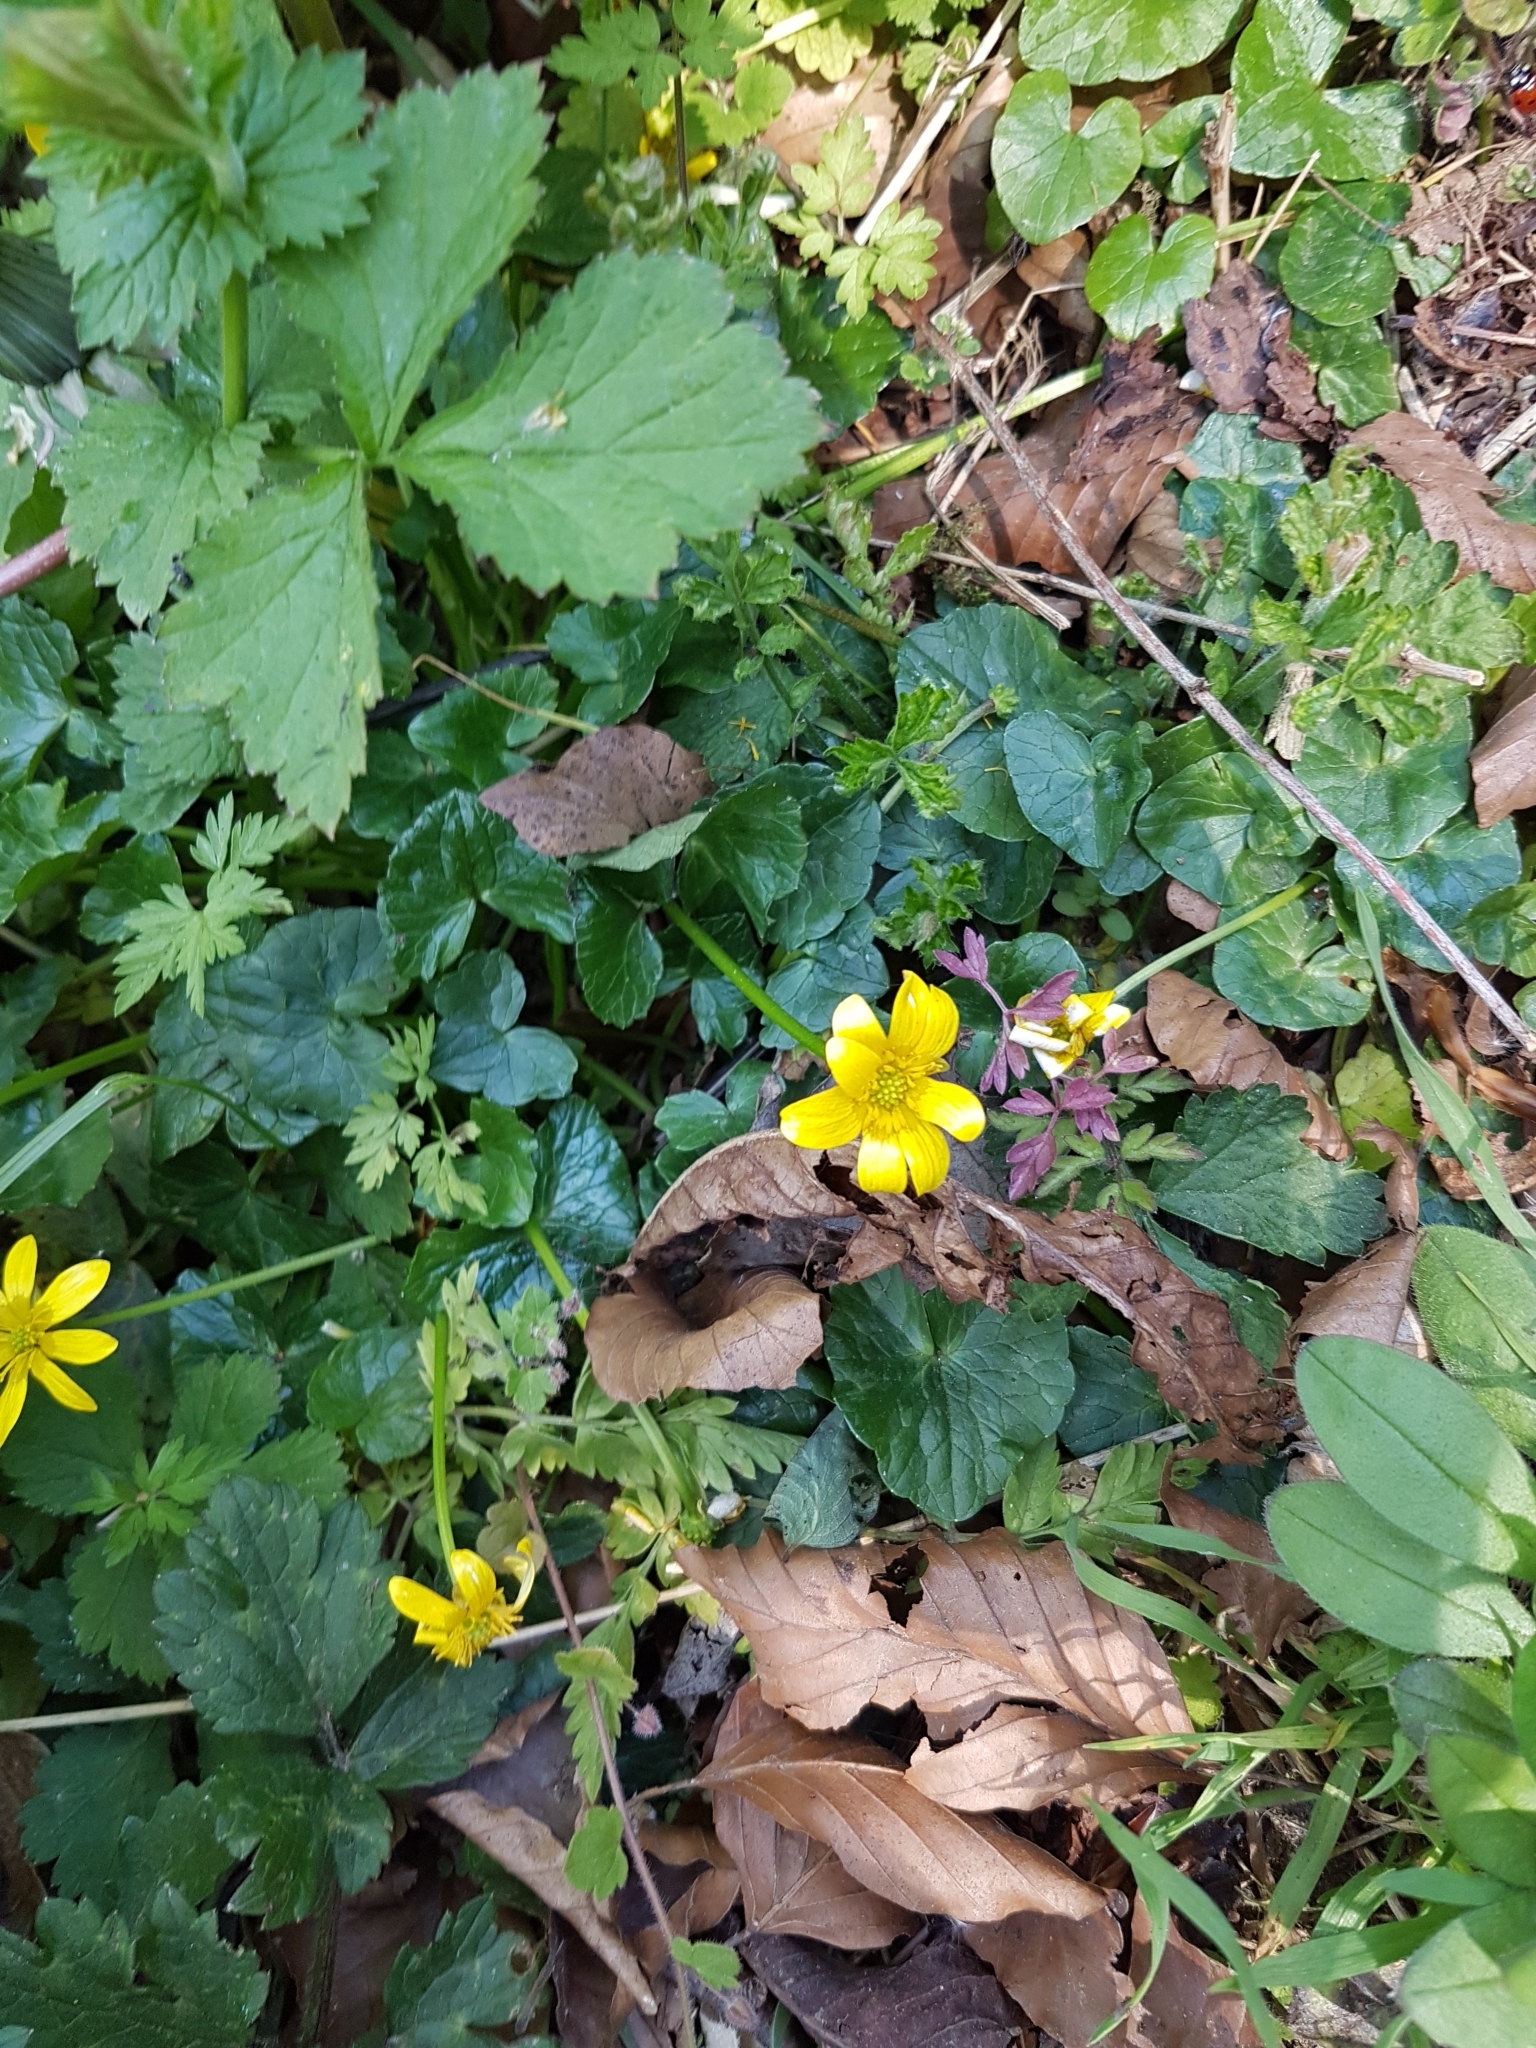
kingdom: Plantae
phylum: Tracheophyta
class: Magnoliopsida
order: Ranunculales
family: Ranunculaceae
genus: Ficaria
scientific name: Ficaria verna
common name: Lesser celandine
